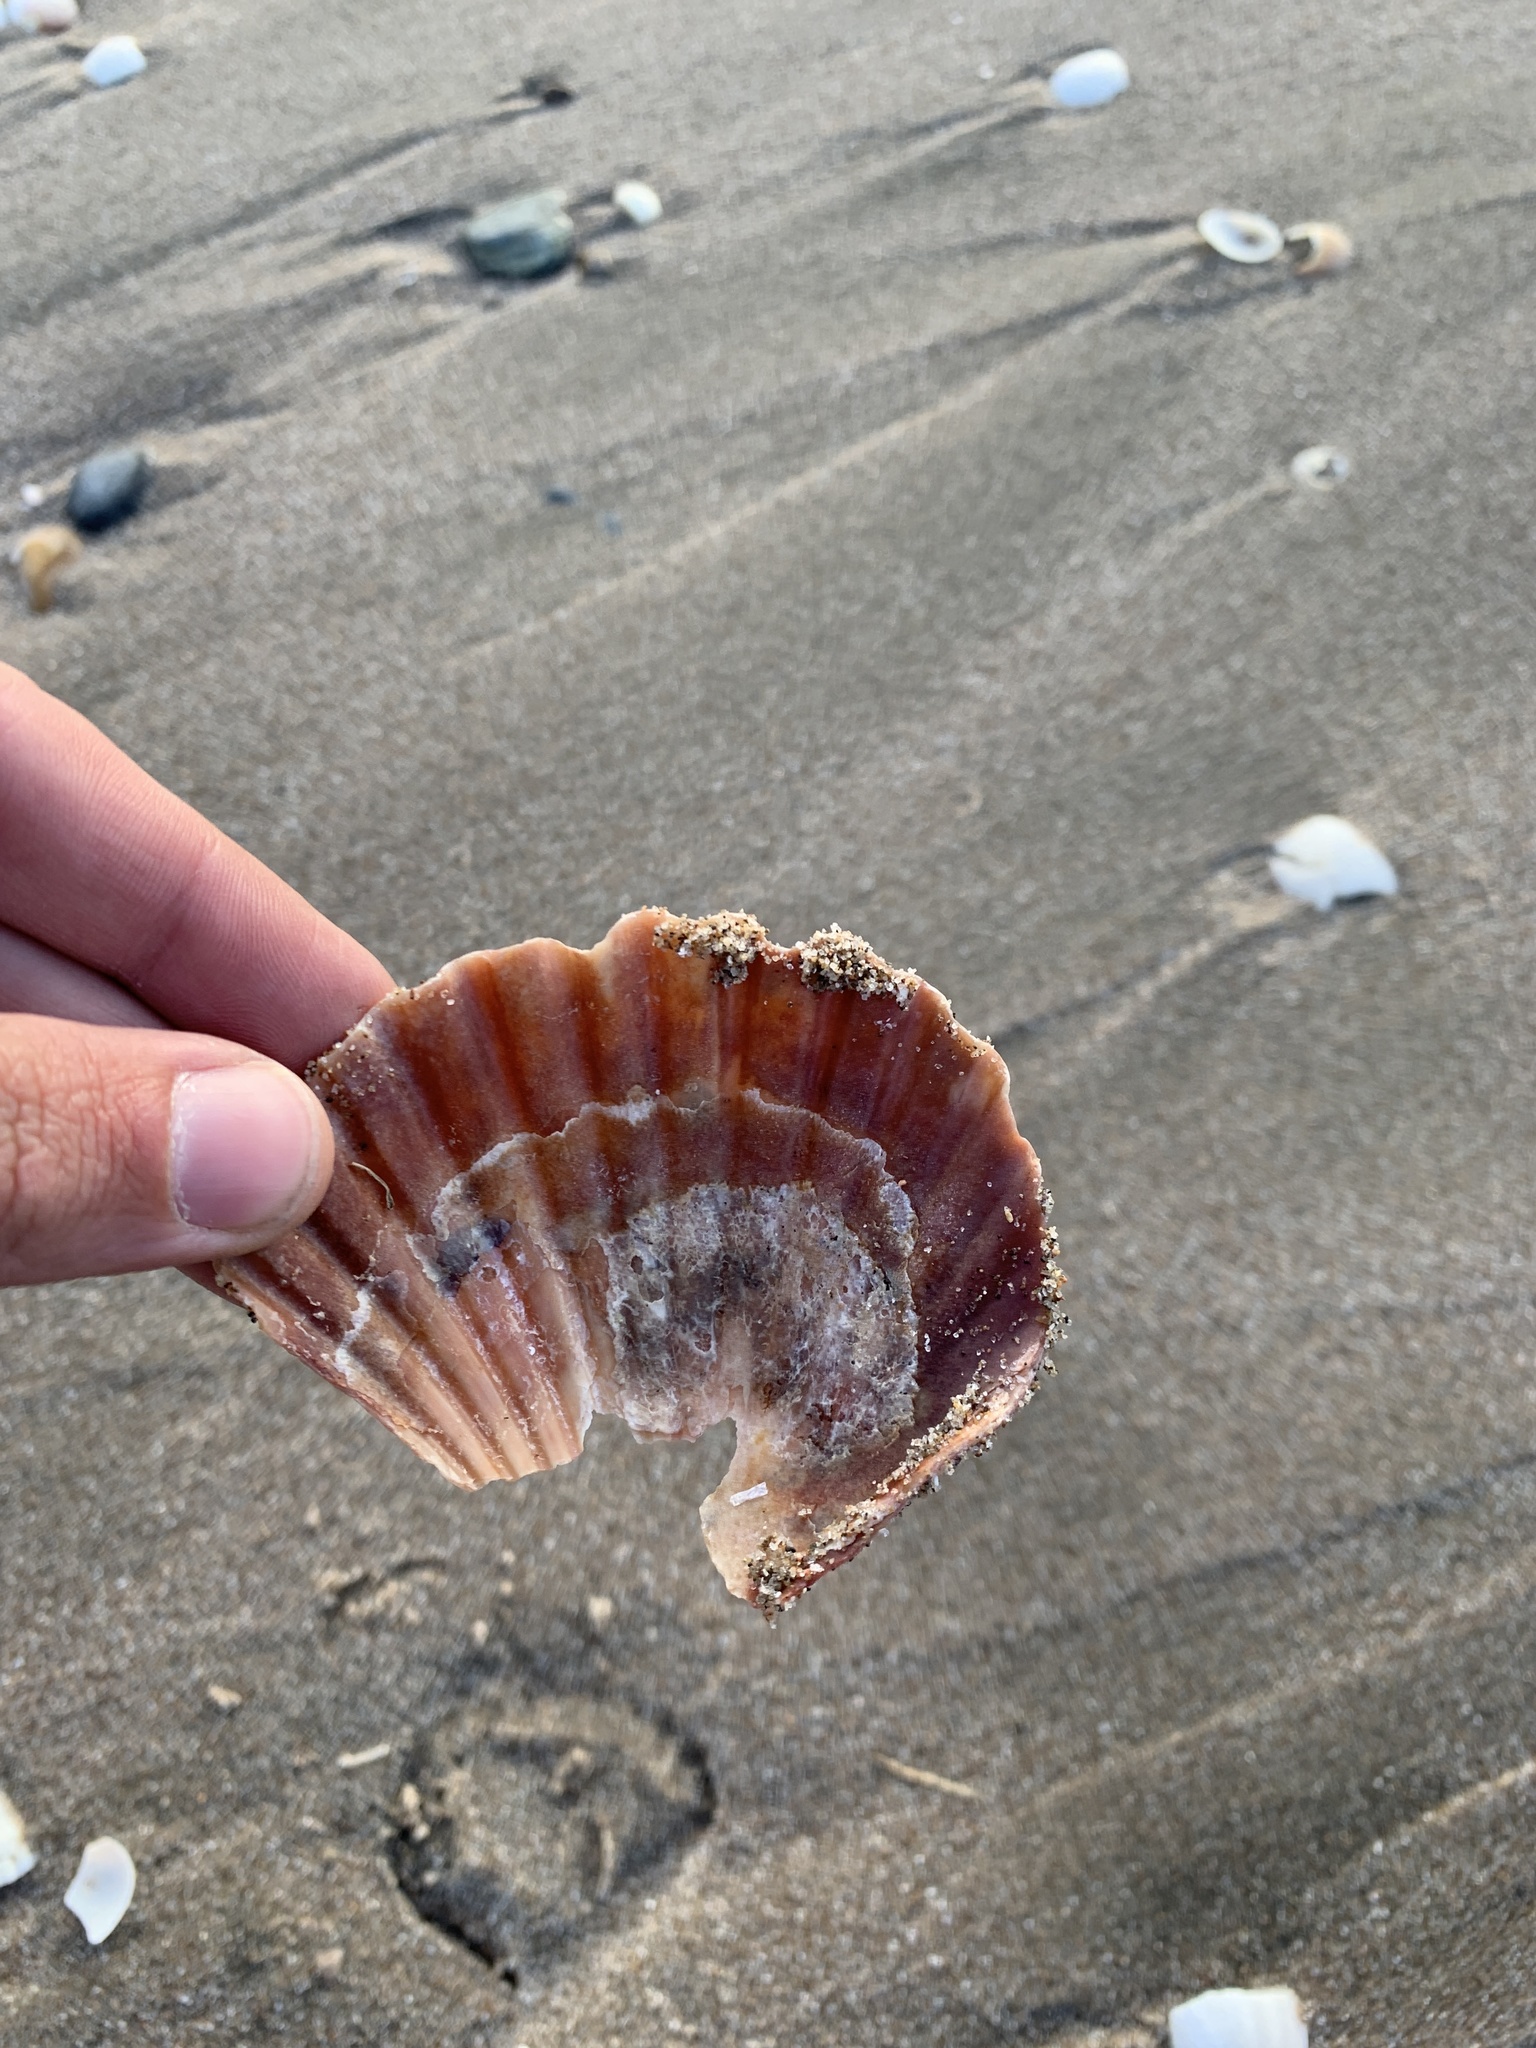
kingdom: Animalia
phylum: Mollusca
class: Bivalvia
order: Pectinida
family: Pectinidae
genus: Aequipecten
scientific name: Aequipecten tehuelchus
